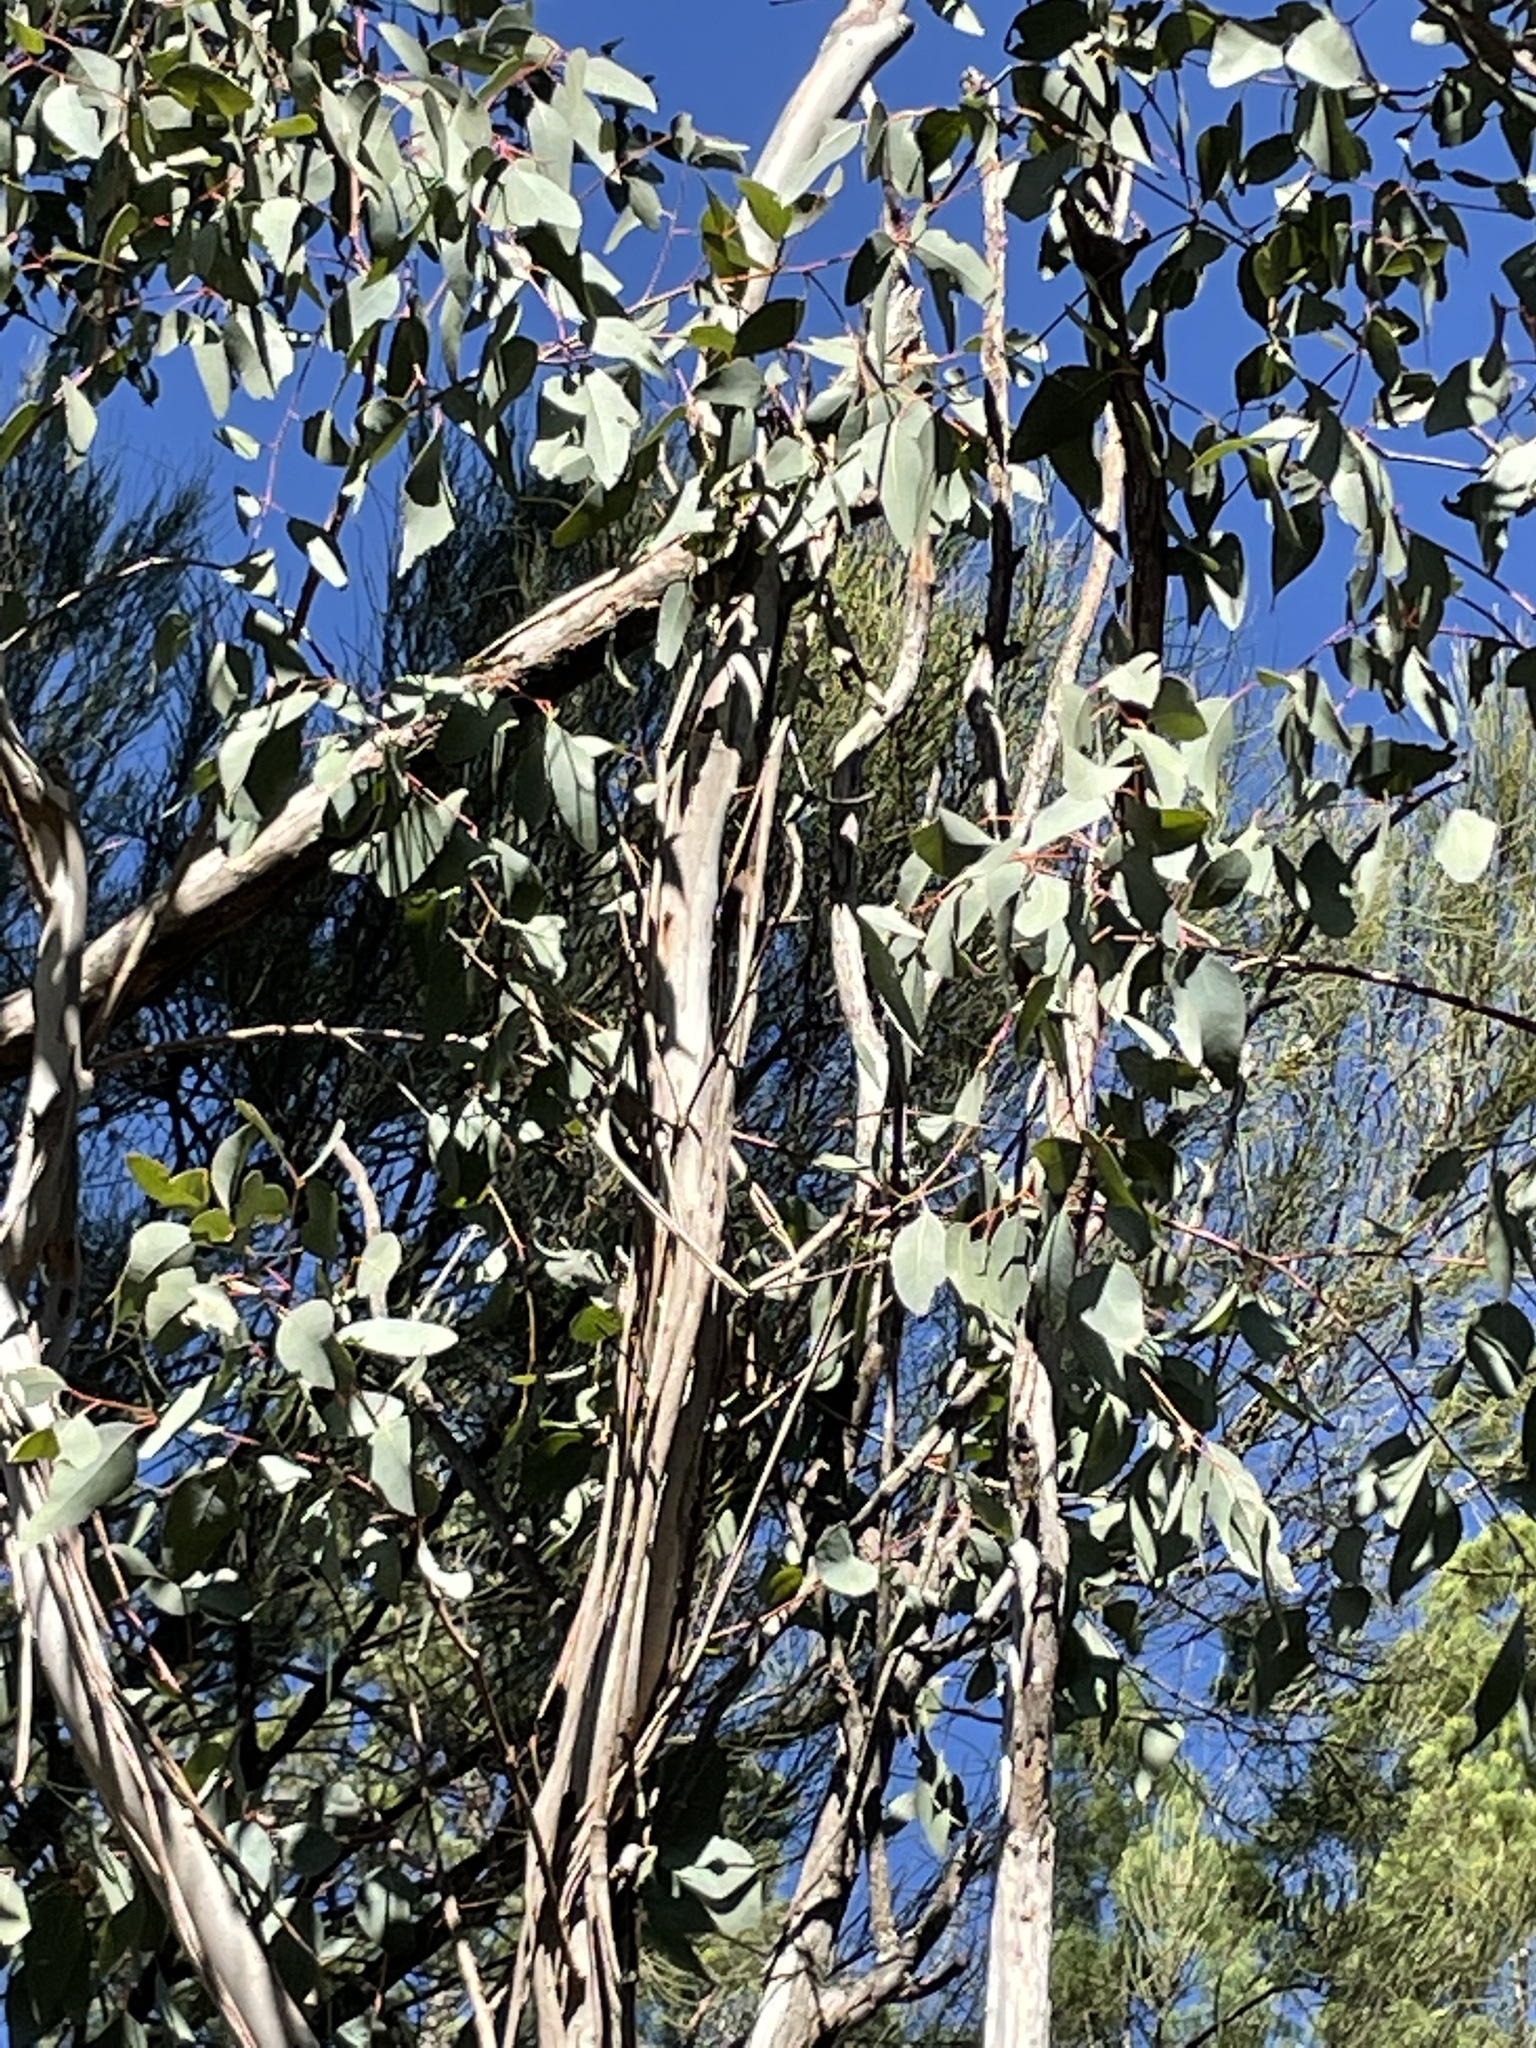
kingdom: Plantae
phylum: Tracheophyta
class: Magnoliopsida
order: Myrtales
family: Myrtaceae
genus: Eucalyptus
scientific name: Eucalyptus chloroclada
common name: Baradine red gum
